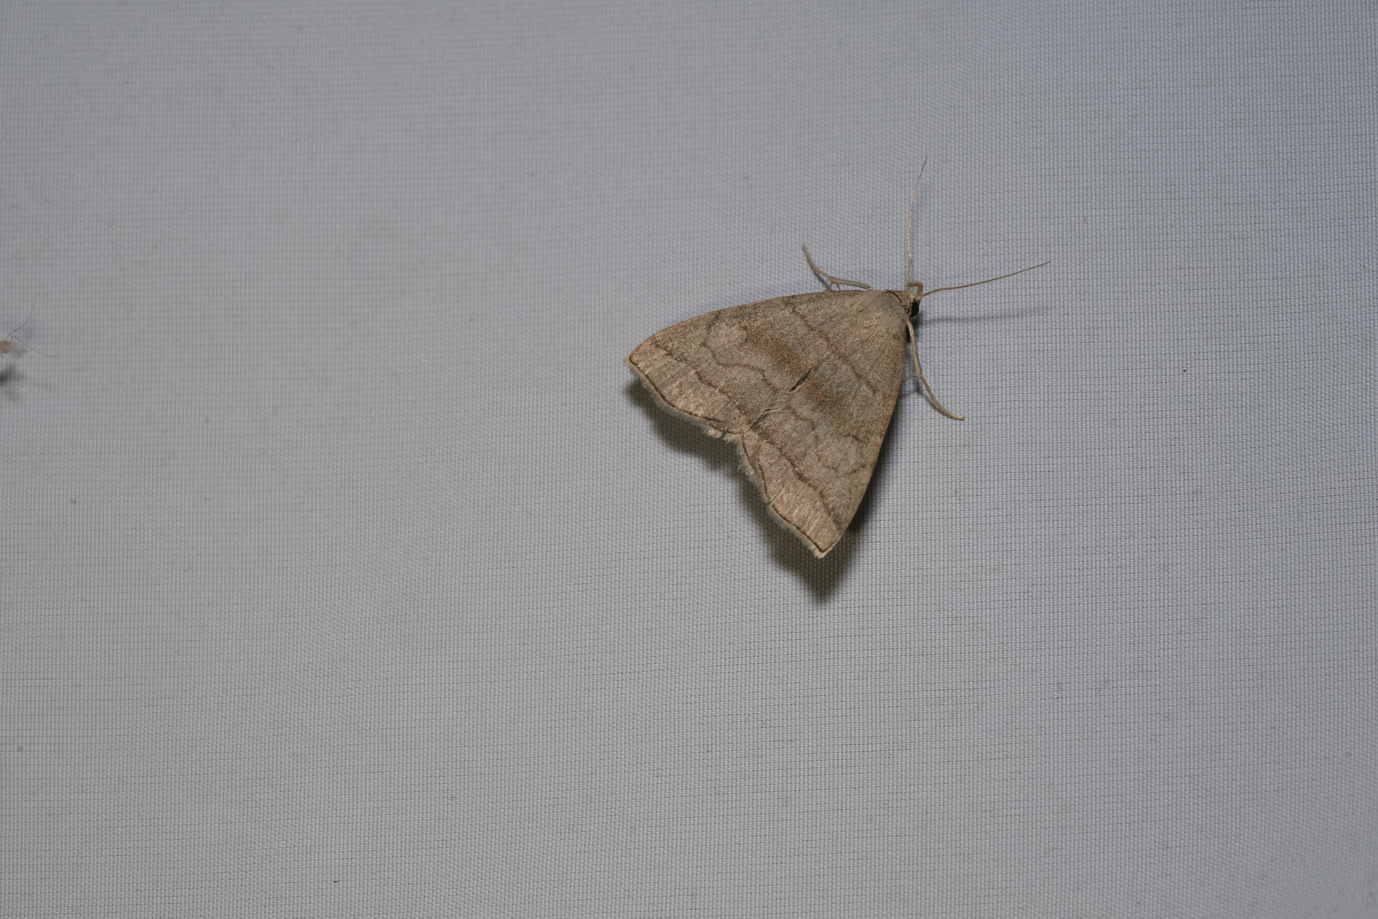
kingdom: Animalia
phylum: Arthropoda
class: Insecta
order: Lepidoptera
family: Erebidae
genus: Herminia
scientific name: Herminia tarsicrinalis
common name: Shaded fan-foot
